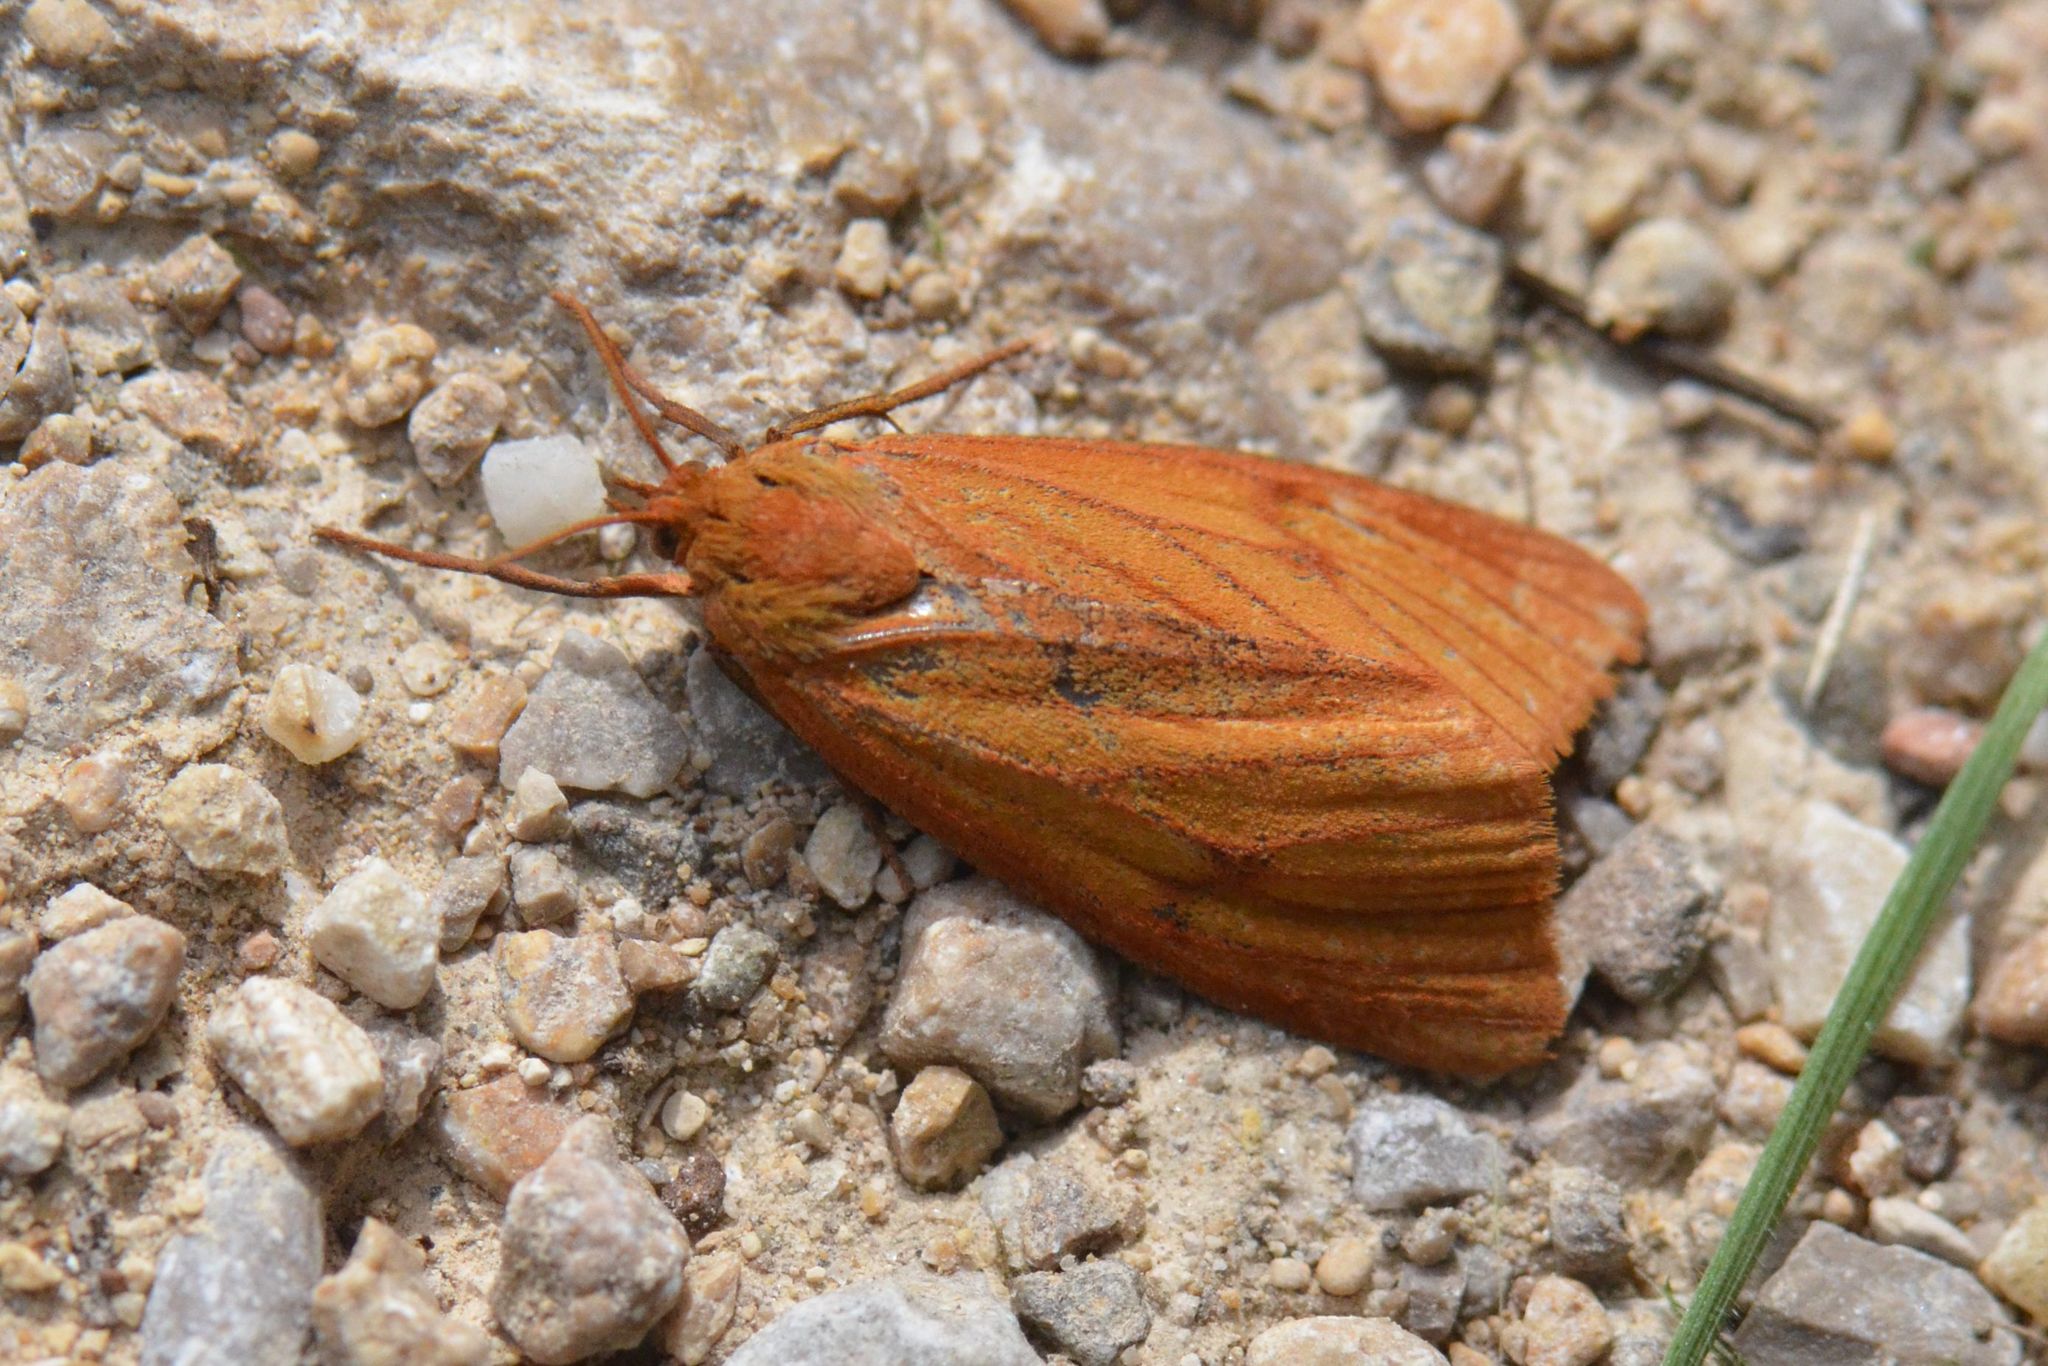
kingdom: Animalia
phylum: Arthropoda
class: Insecta
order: Lepidoptera
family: Erebidae
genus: Diacrisia
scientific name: Diacrisia sannio
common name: Clouded buff
